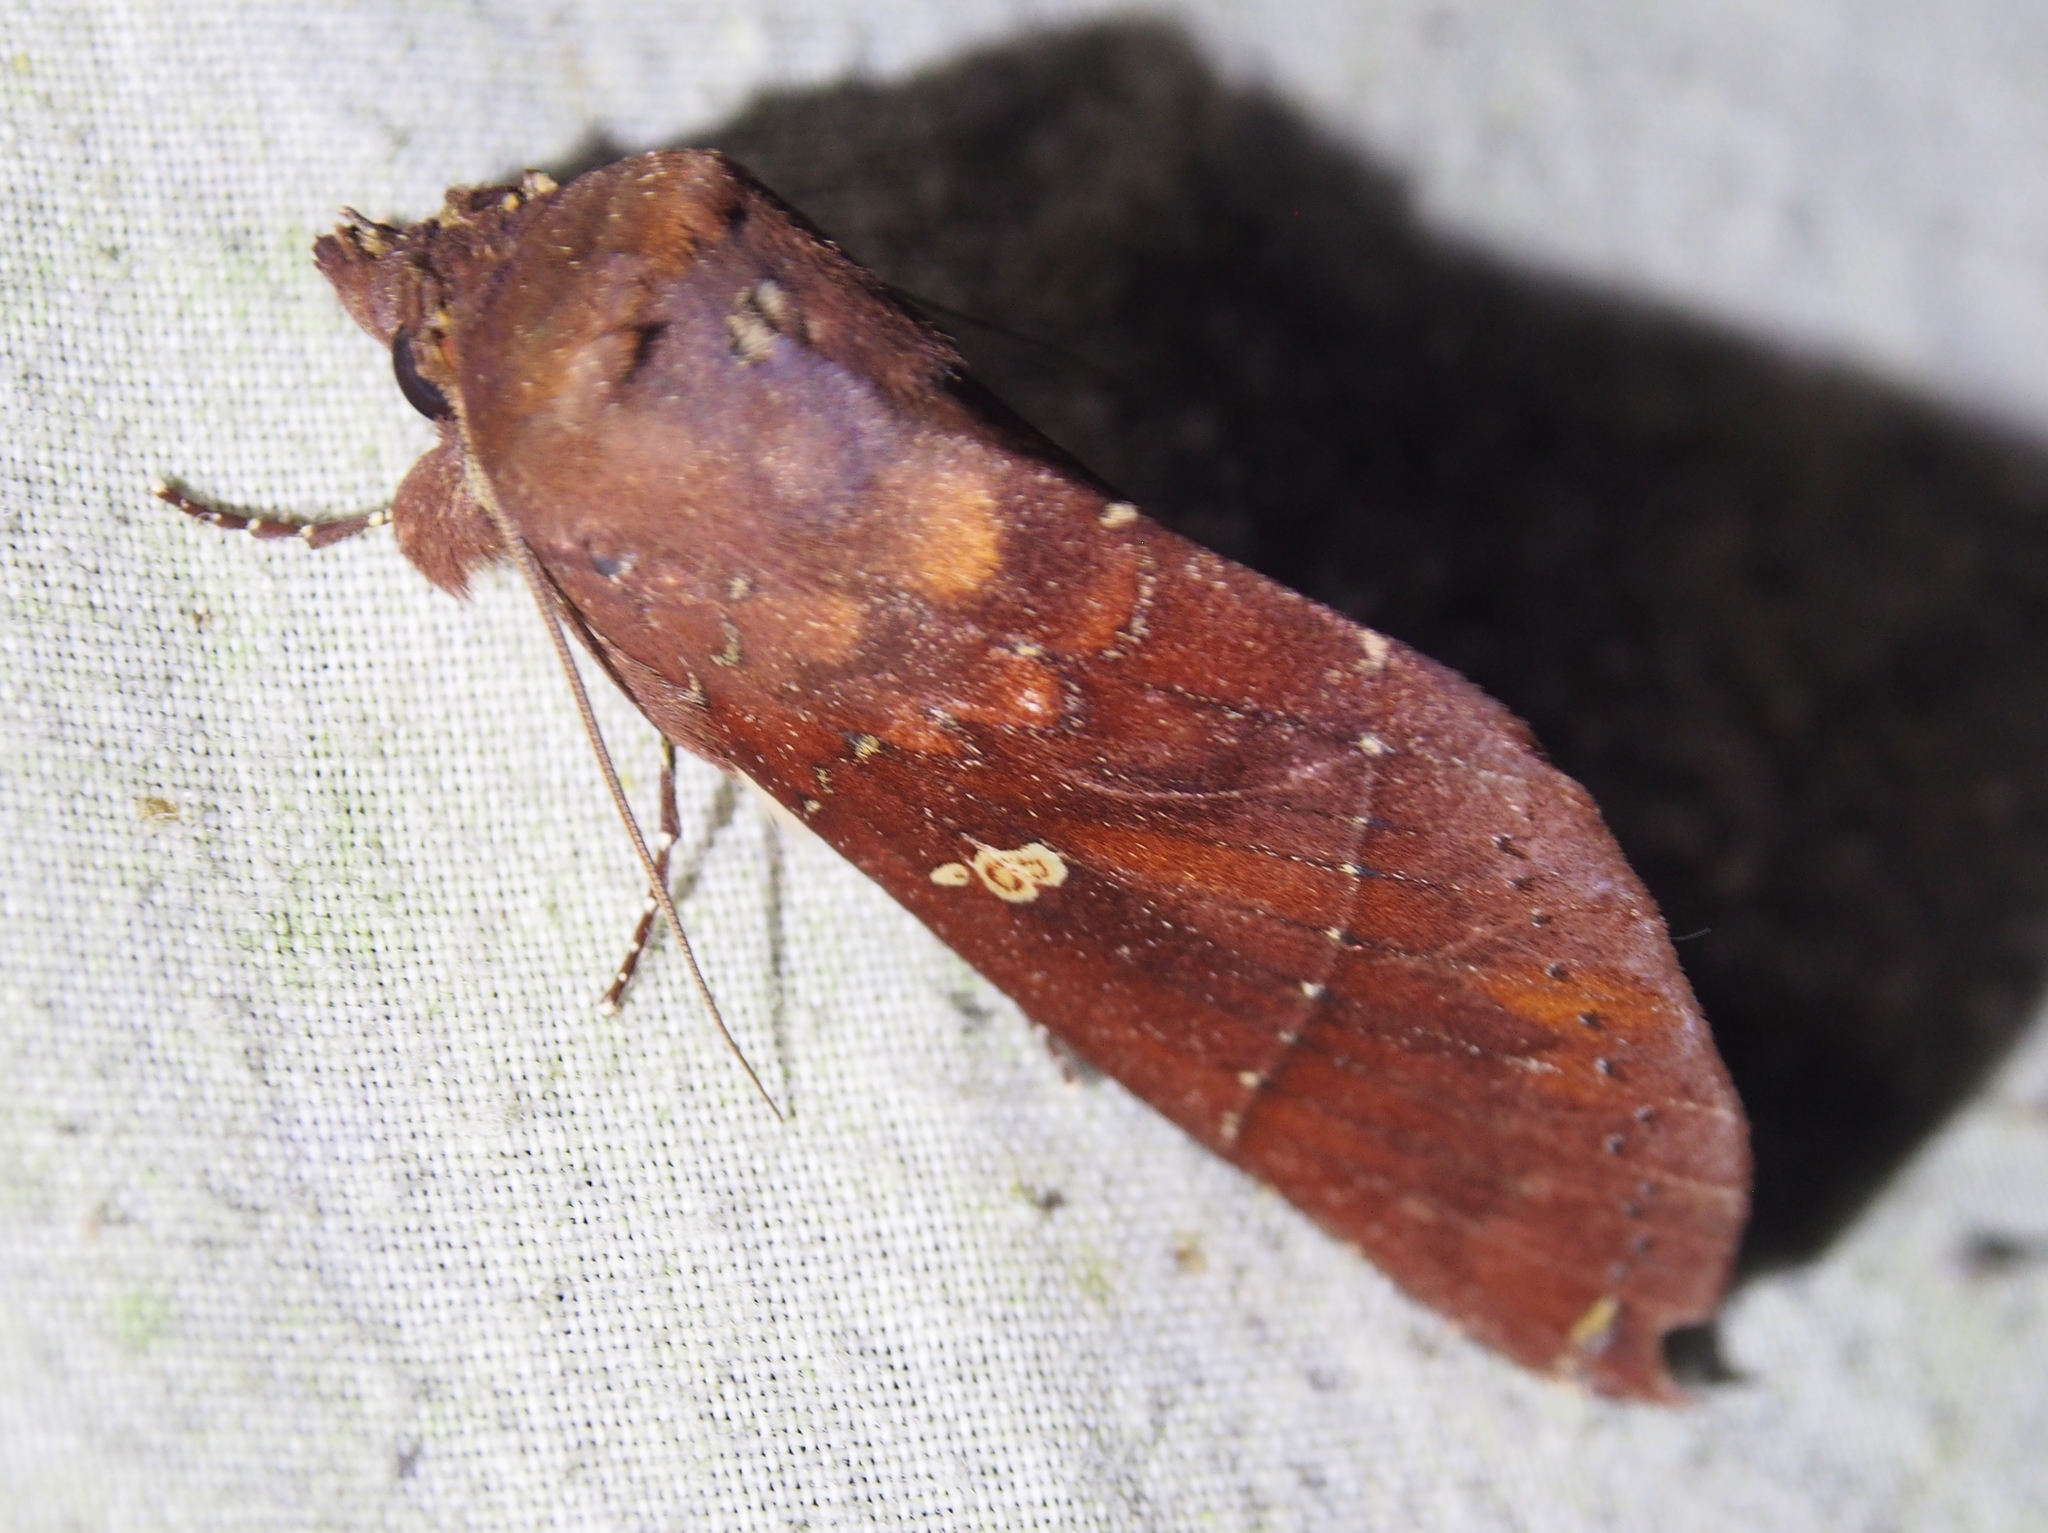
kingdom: Animalia
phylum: Arthropoda
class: Insecta
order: Lepidoptera
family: Notodontidae
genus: Hapigia
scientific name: Hapigia simplex
